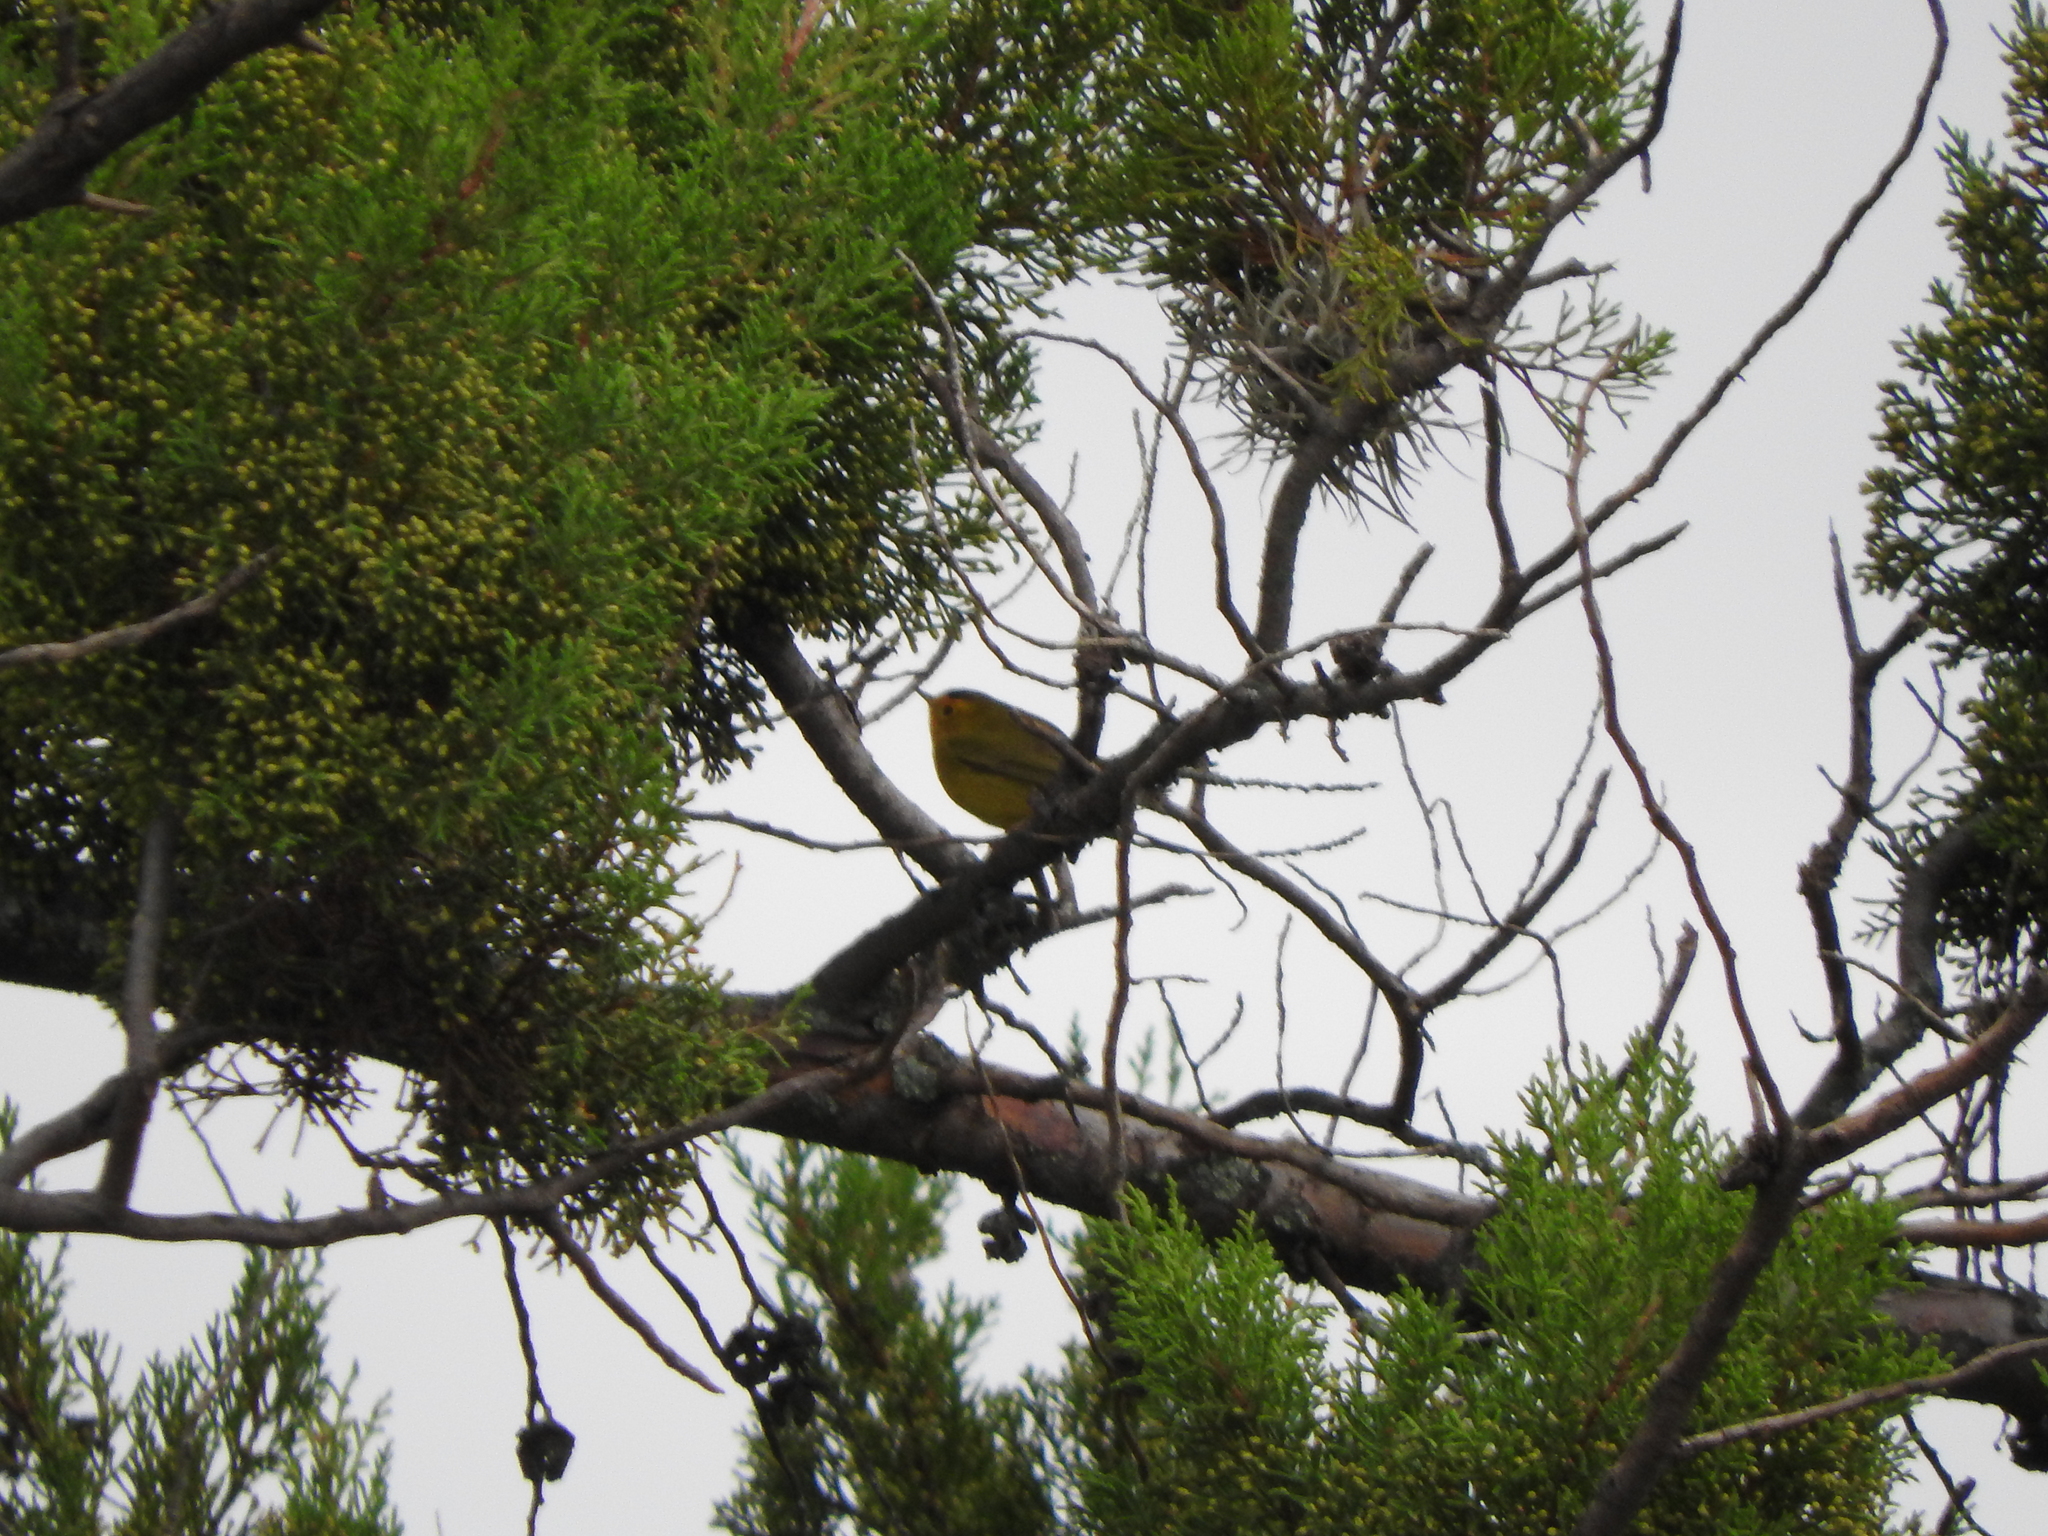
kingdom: Animalia
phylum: Chordata
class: Aves
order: Passeriformes
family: Parulidae
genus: Cardellina
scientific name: Cardellina pusilla
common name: Wilson's warbler
